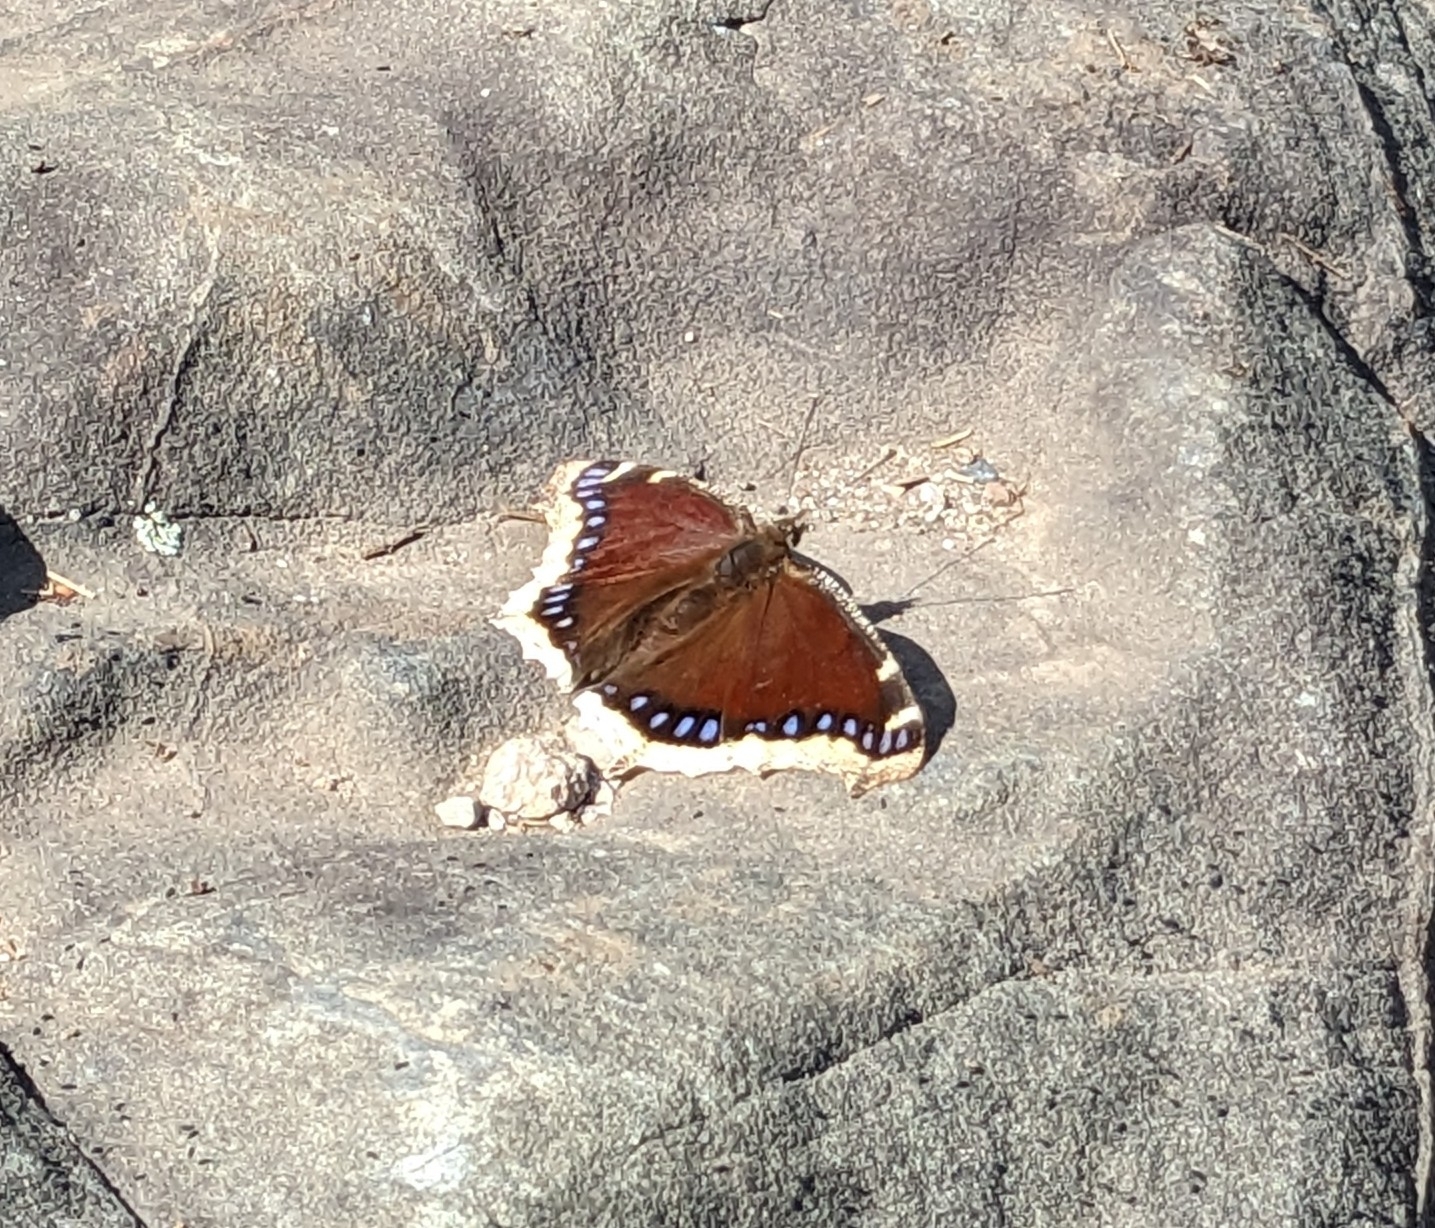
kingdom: Animalia
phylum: Arthropoda
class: Insecta
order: Lepidoptera
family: Nymphalidae
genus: Nymphalis
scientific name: Nymphalis antiopa
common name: Camberwell beauty
